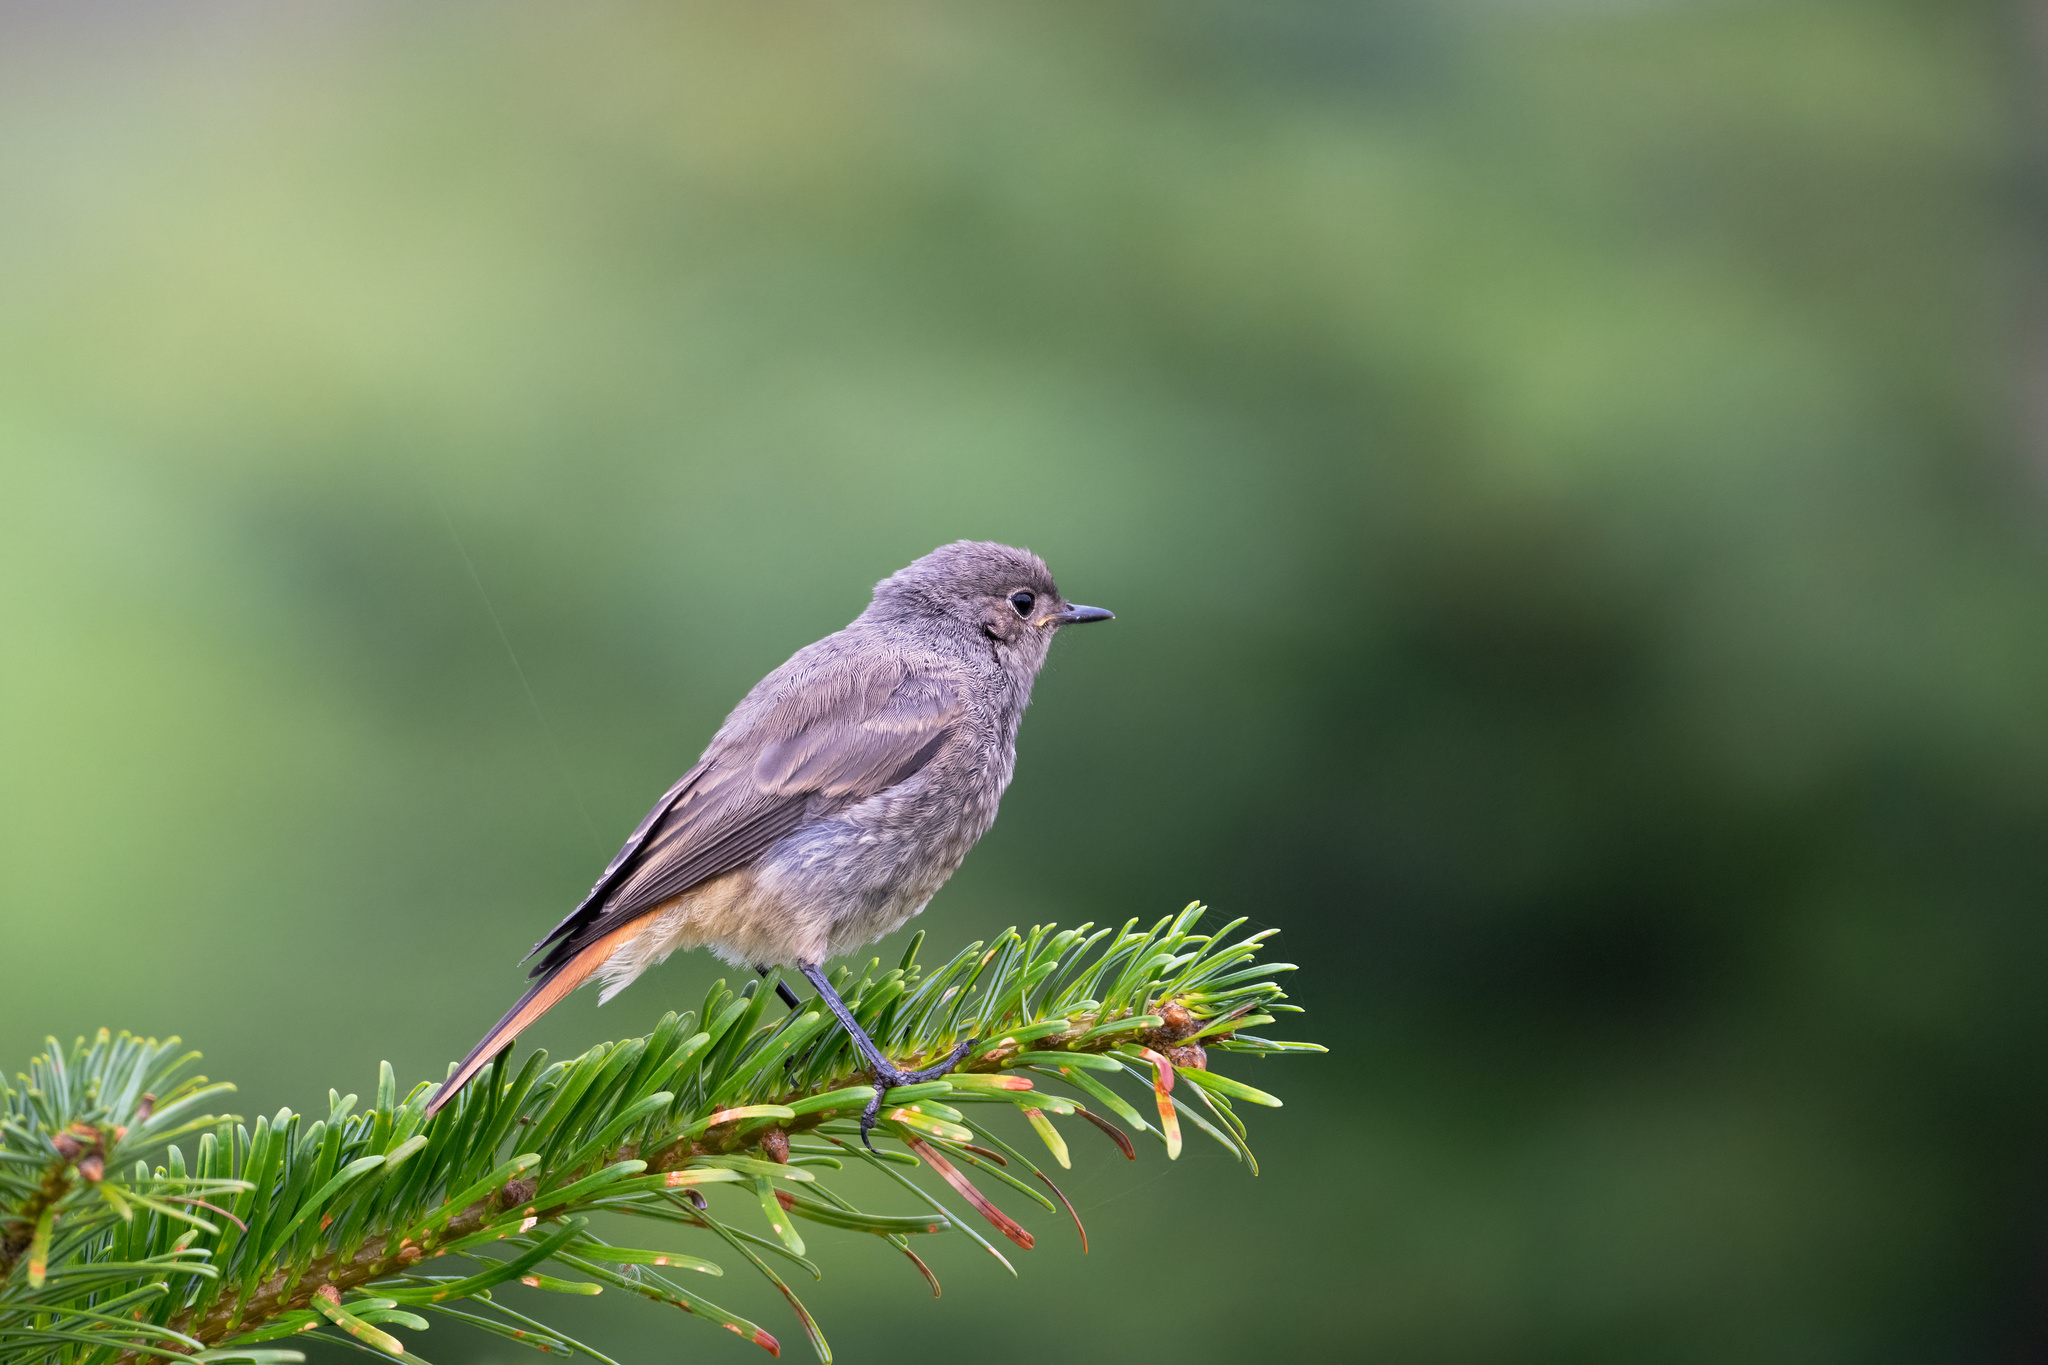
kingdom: Animalia
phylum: Chordata
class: Aves
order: Passeriformes
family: Muscicapidae
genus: Phoenicurus
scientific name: Phoenicurus ochruros
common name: Black redstart
